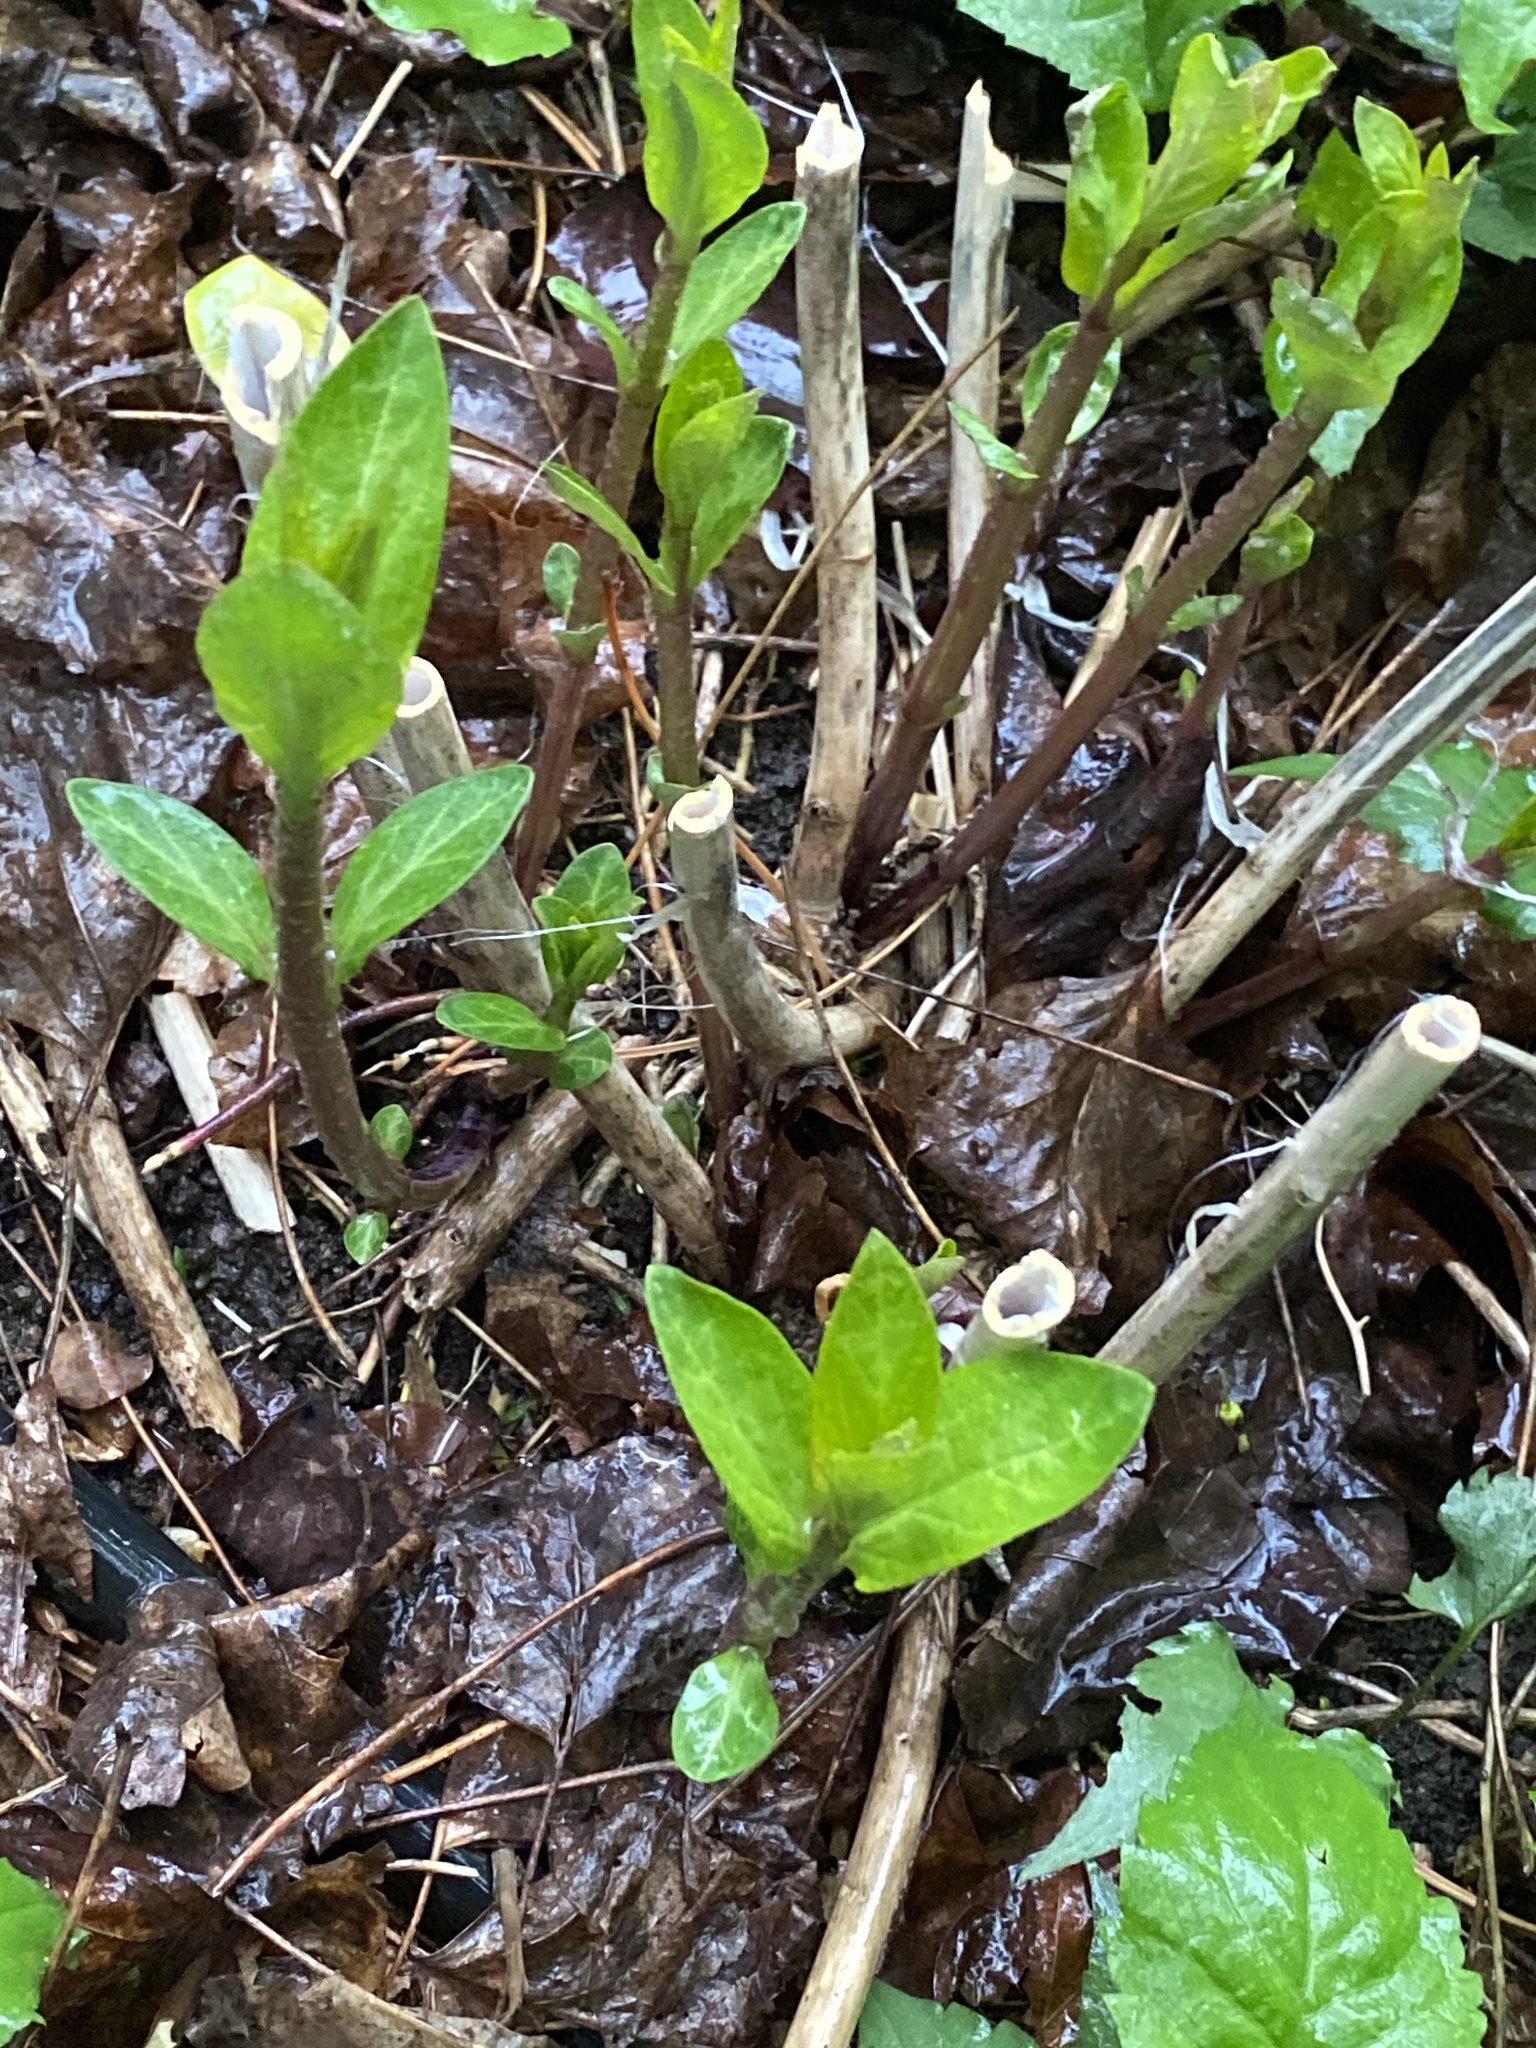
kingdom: Plantae
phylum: Tracheophyta
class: Magnoliopsida
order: Gentianales
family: Apocynaceae
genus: Asclepias
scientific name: Asclepias incarnata
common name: Swamp milkweed
